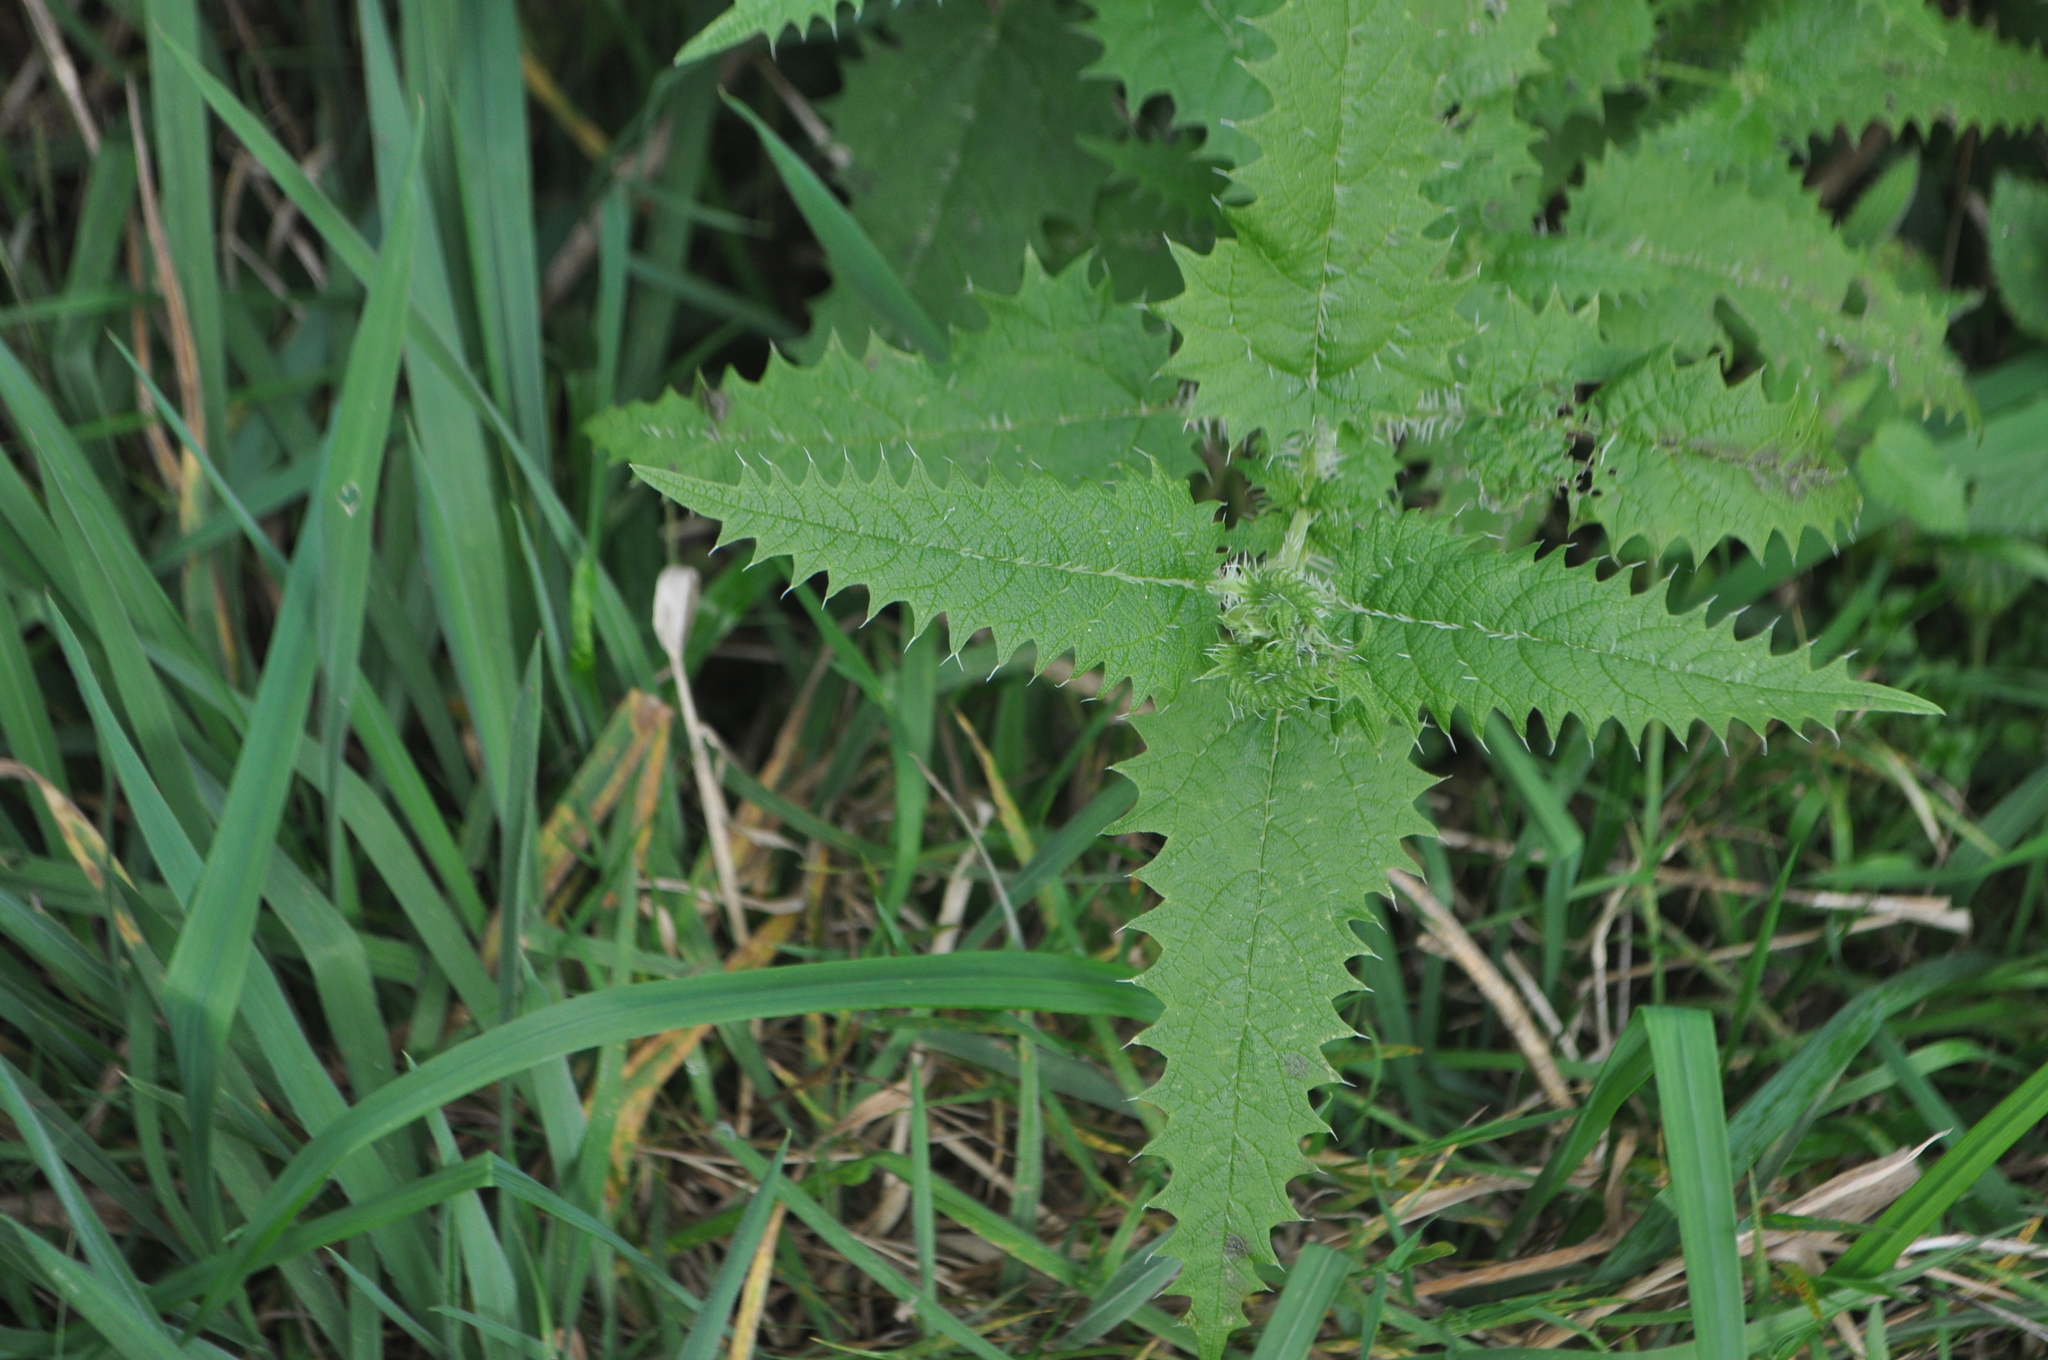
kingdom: Plantae
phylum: Tracheophyta
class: Magnoliopsida
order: Rosales
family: Urticaceae
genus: Urtica
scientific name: Urtica ferox
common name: Tree nettle
